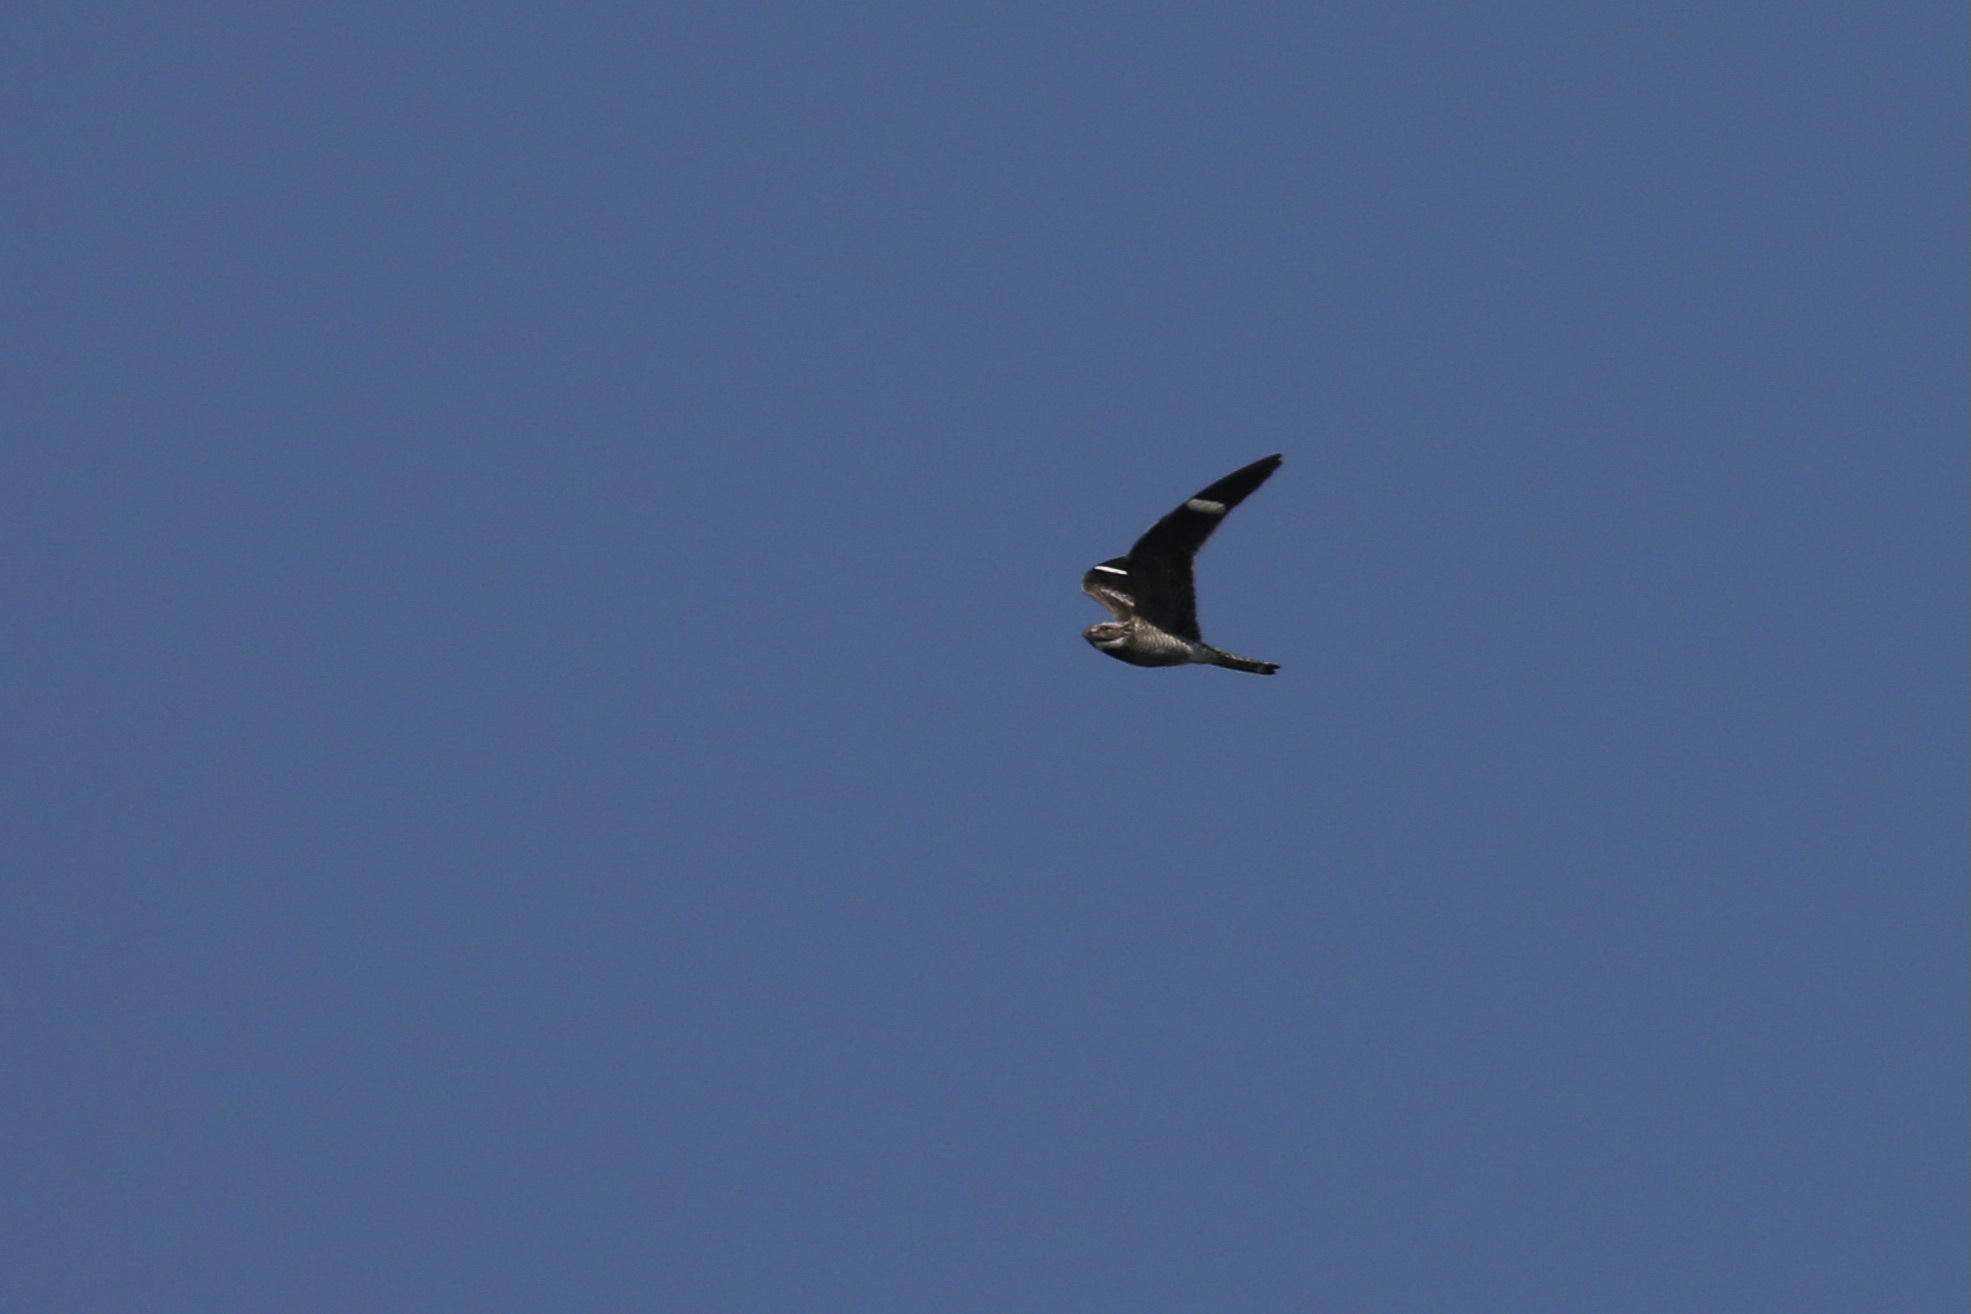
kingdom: Animalia
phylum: Chordata
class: Aves
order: Caprimulgiformes
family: Caprimulgidae
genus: Chordeiles
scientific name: Chordeiles minor
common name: Common nighthawk
